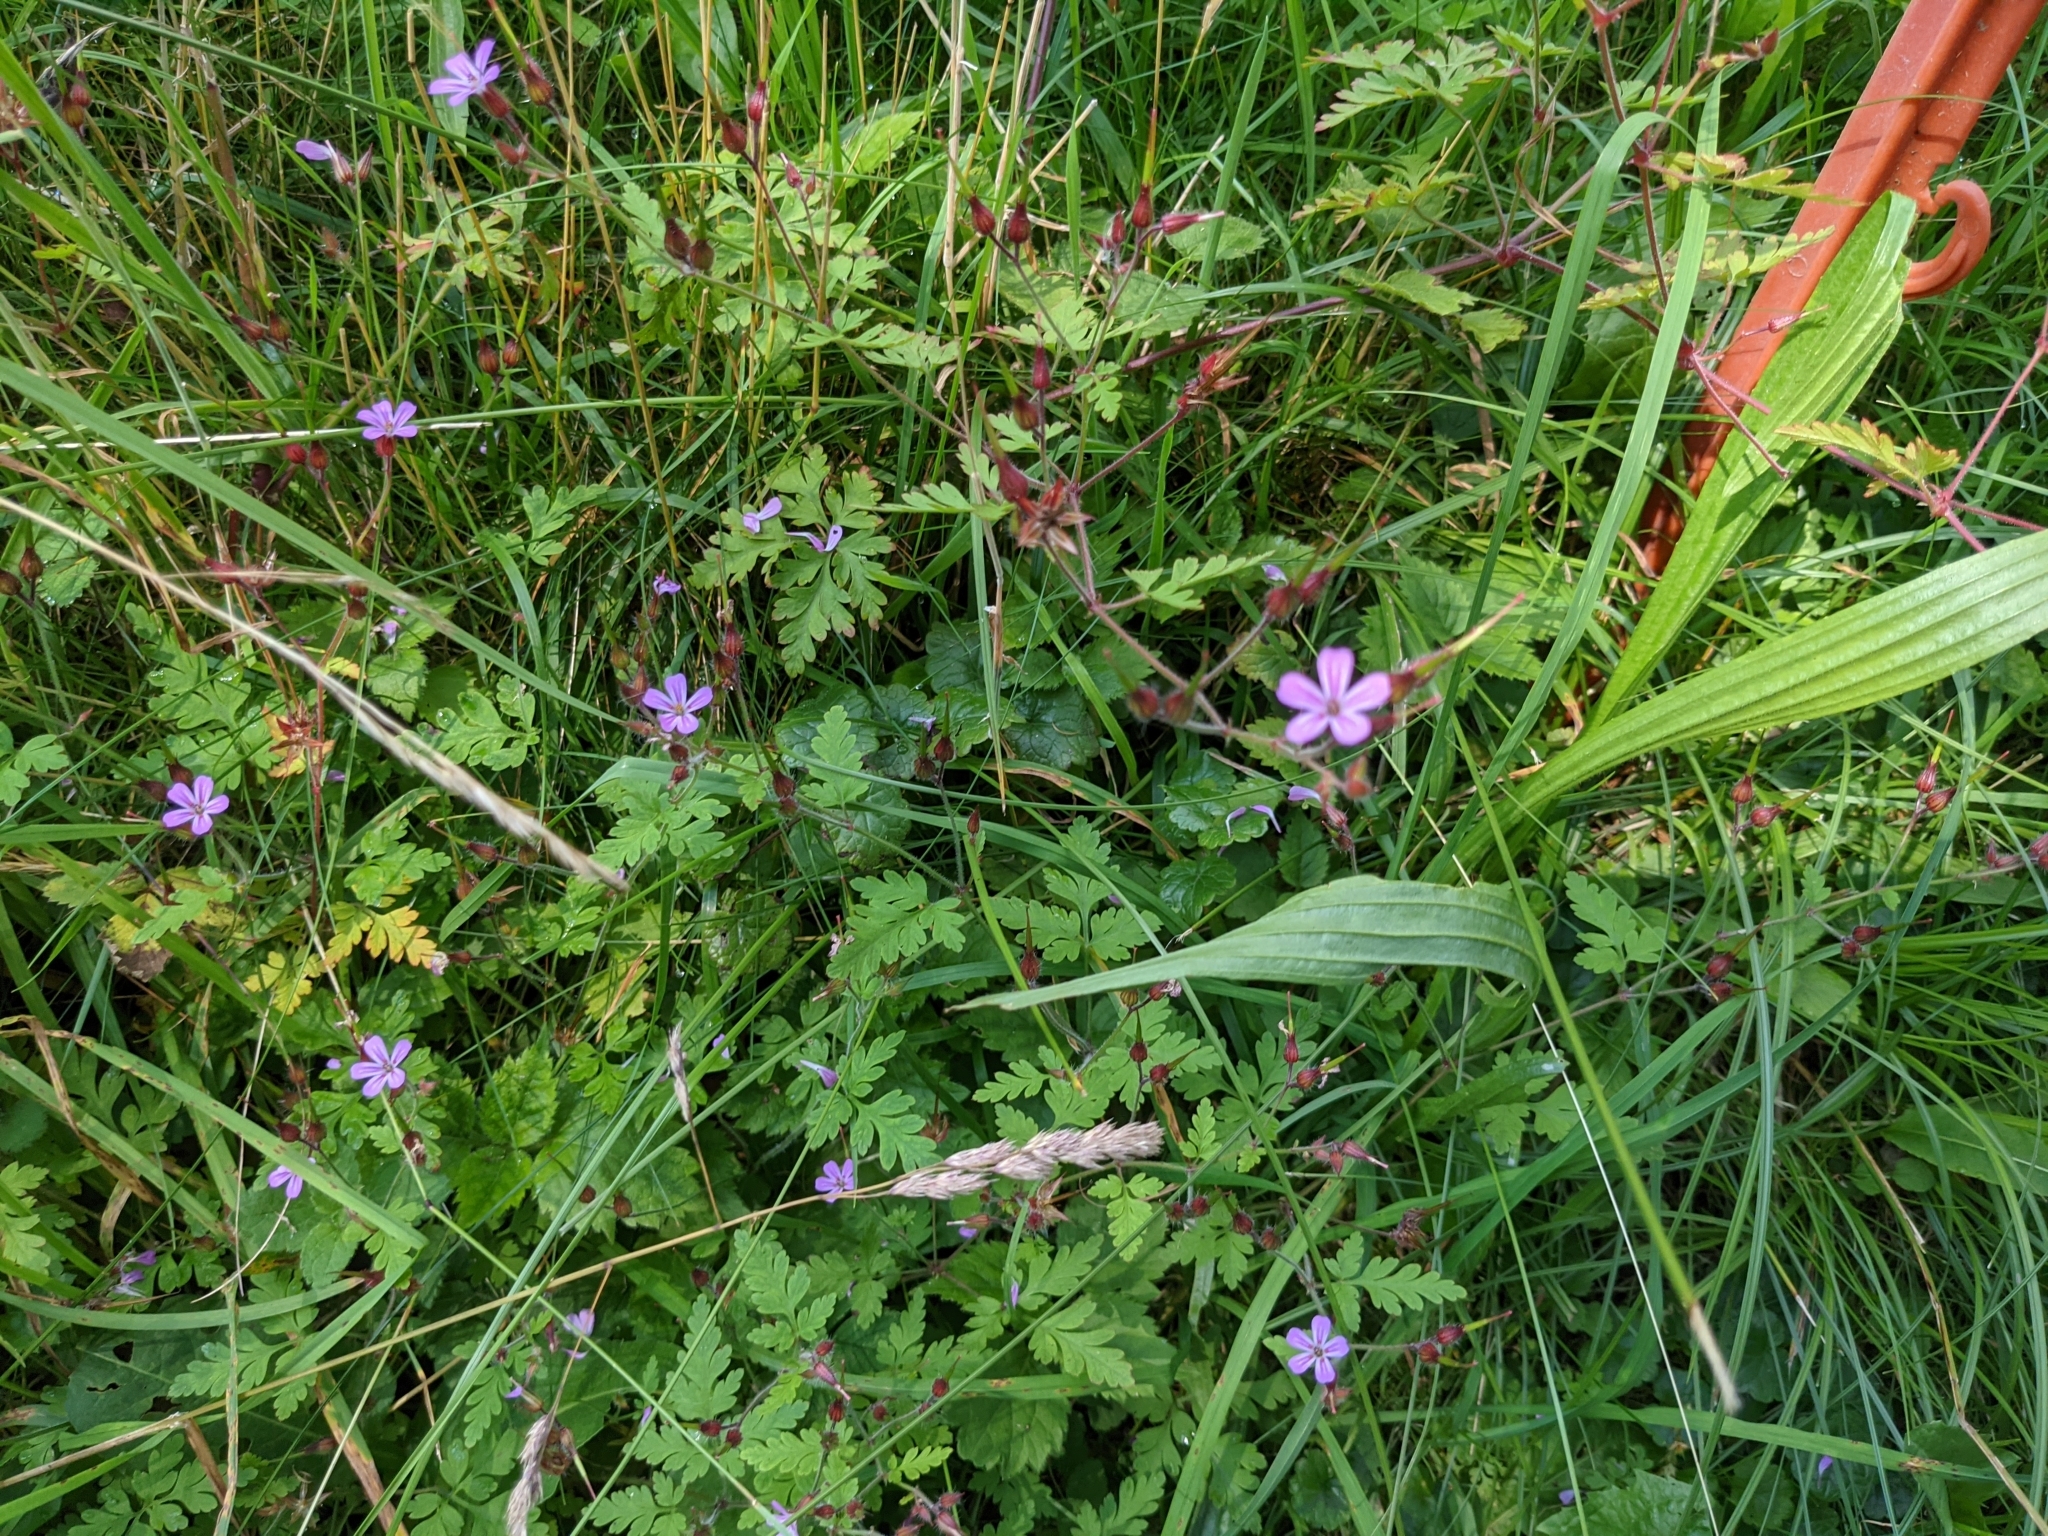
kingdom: Plantae
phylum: Tracheophyta
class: Magnoliopsida
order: Geraniales
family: Geraniaceae
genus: Geranium
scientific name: Geranium robertianum
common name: Herb-robert
